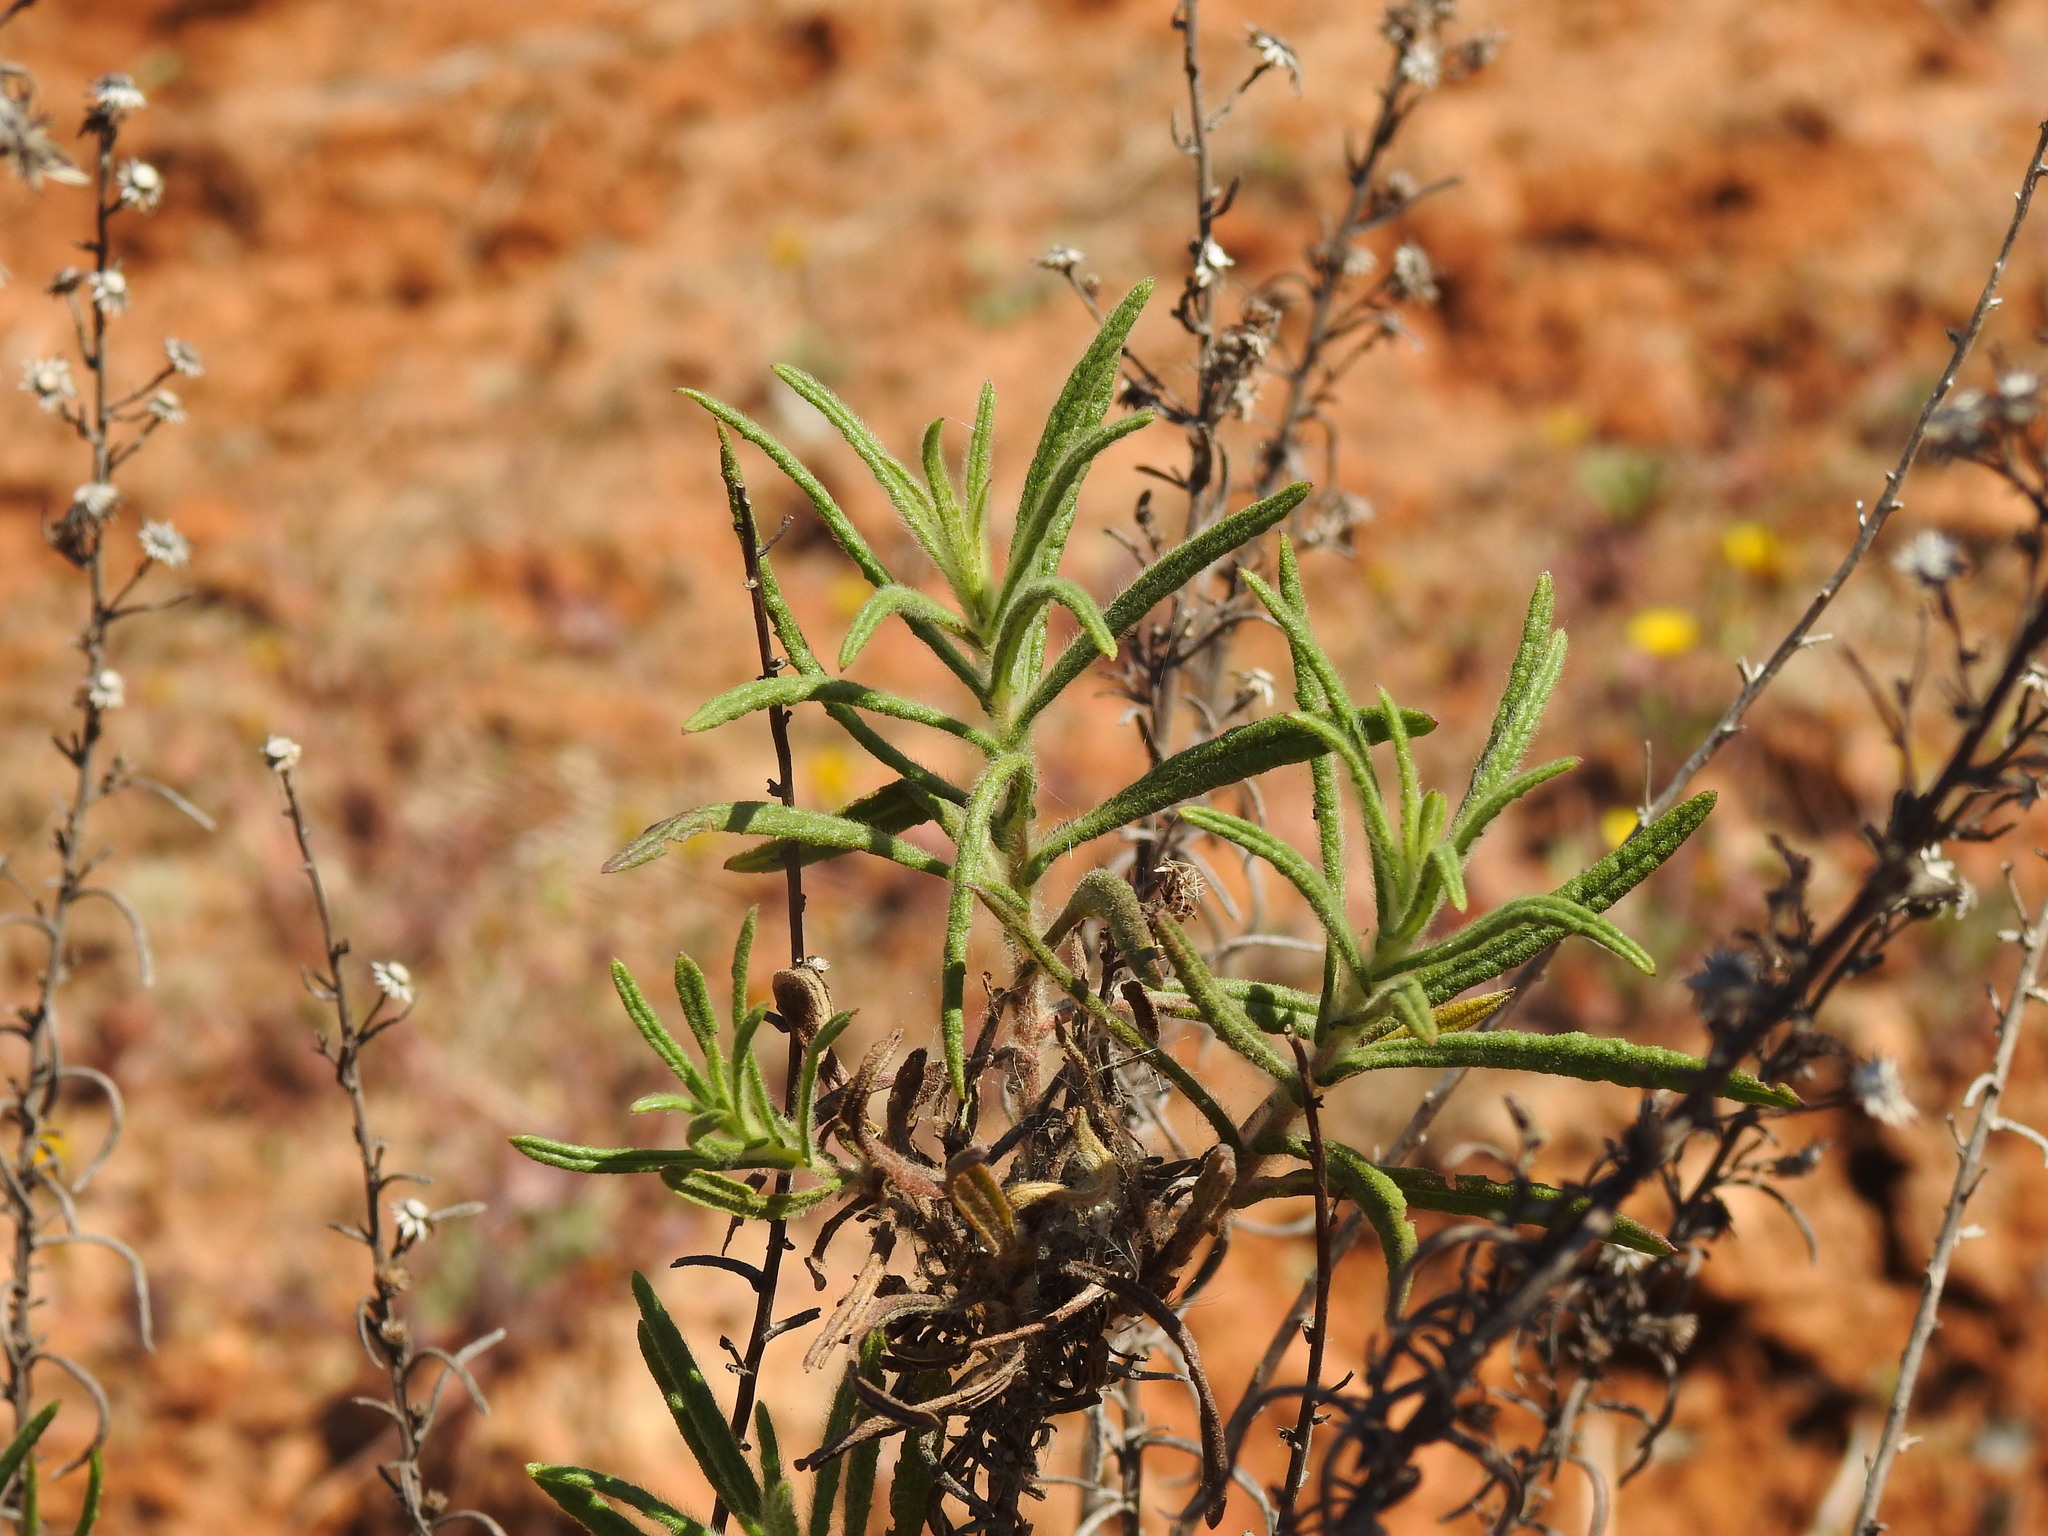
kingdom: Plantae
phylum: Tracheophyta
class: Magnoliopsida
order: Asterales
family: Asteraceae
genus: Dittrichia
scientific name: Dittrichia viscosa
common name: Woody fleabane
